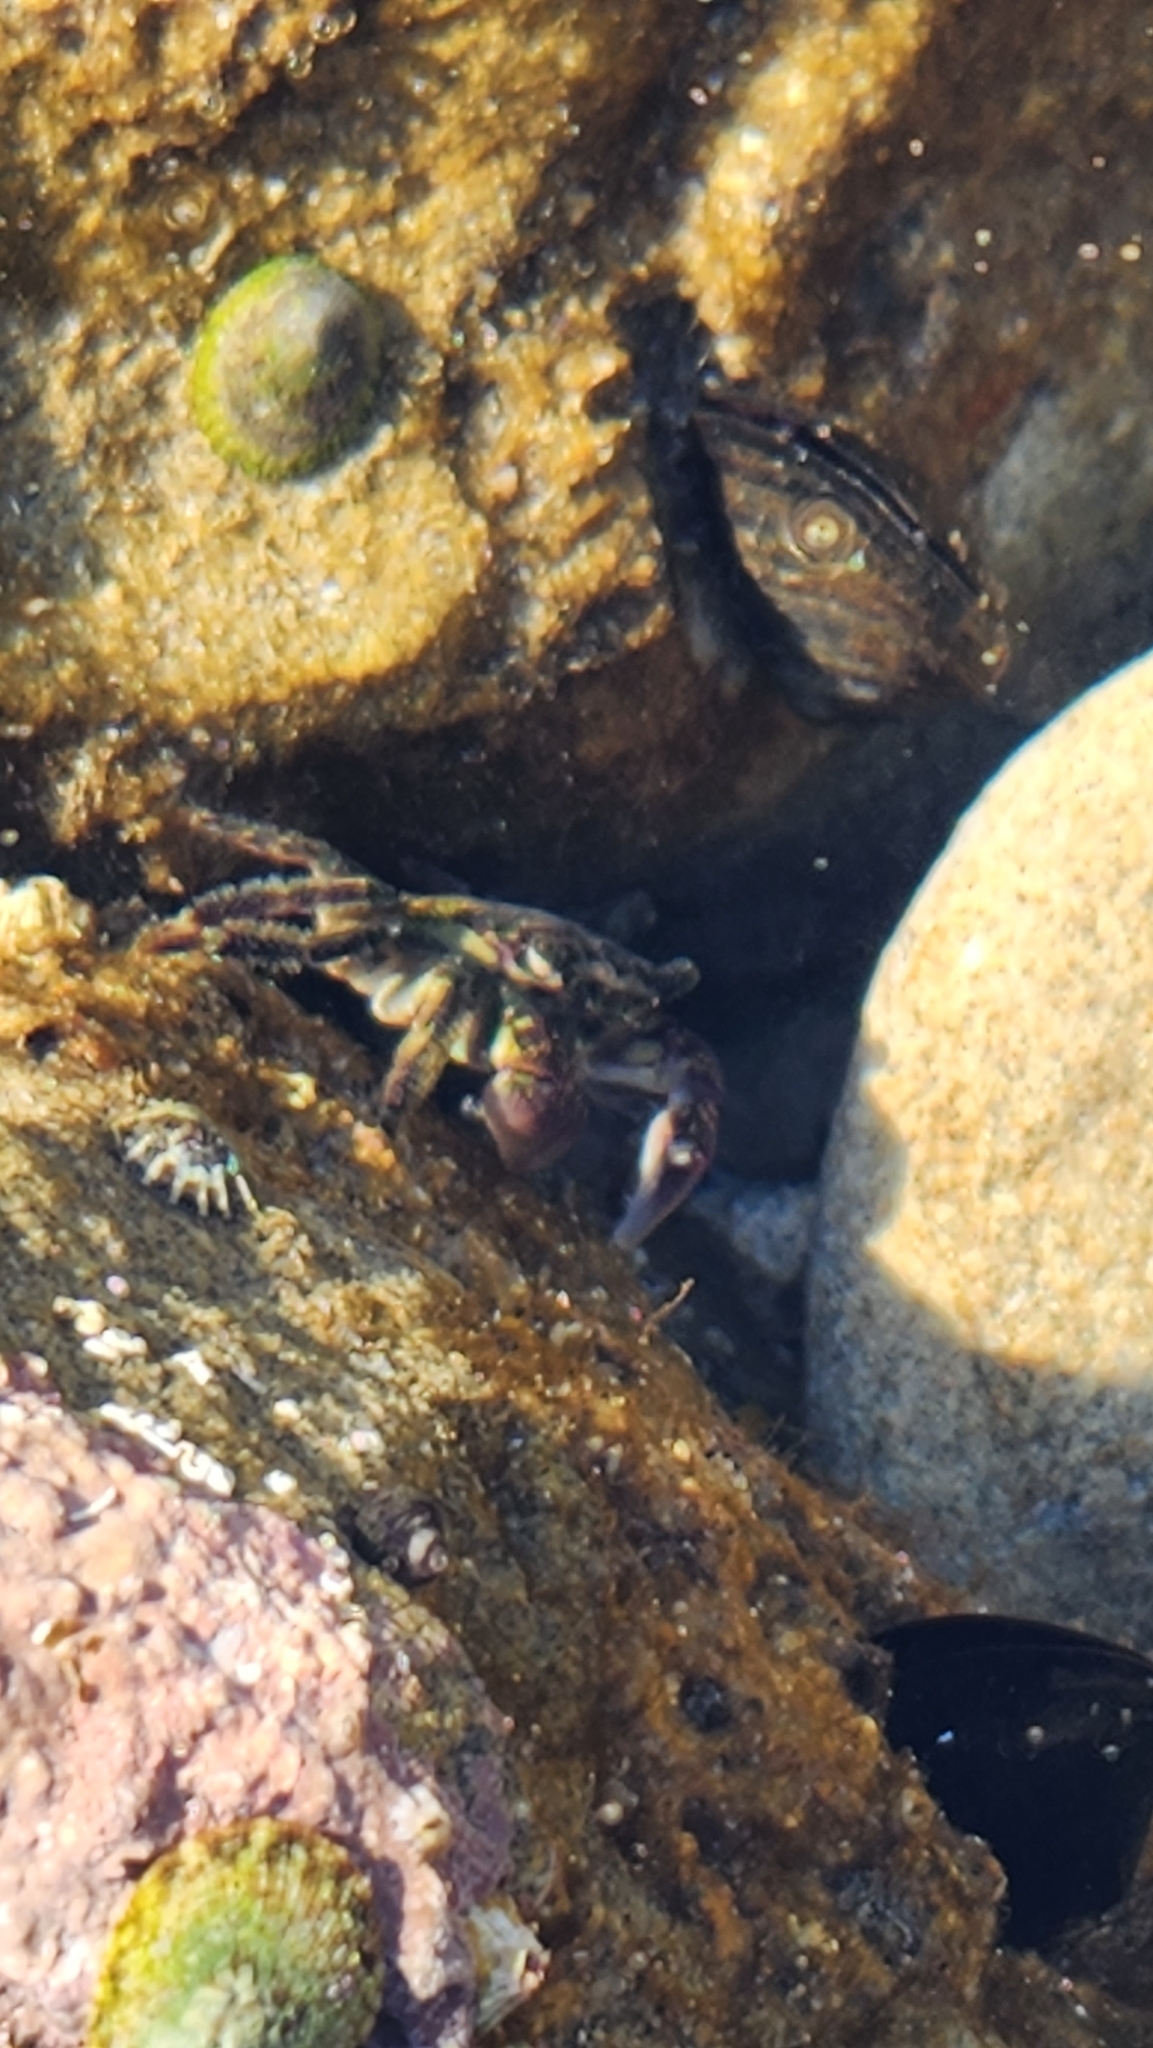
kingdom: Animalia
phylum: Arthropoda
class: Malacostraca
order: Decapoda
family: Grapsidae
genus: Pachygrapsus
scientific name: Pachygrapsus crassipes
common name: Striped shore crab
